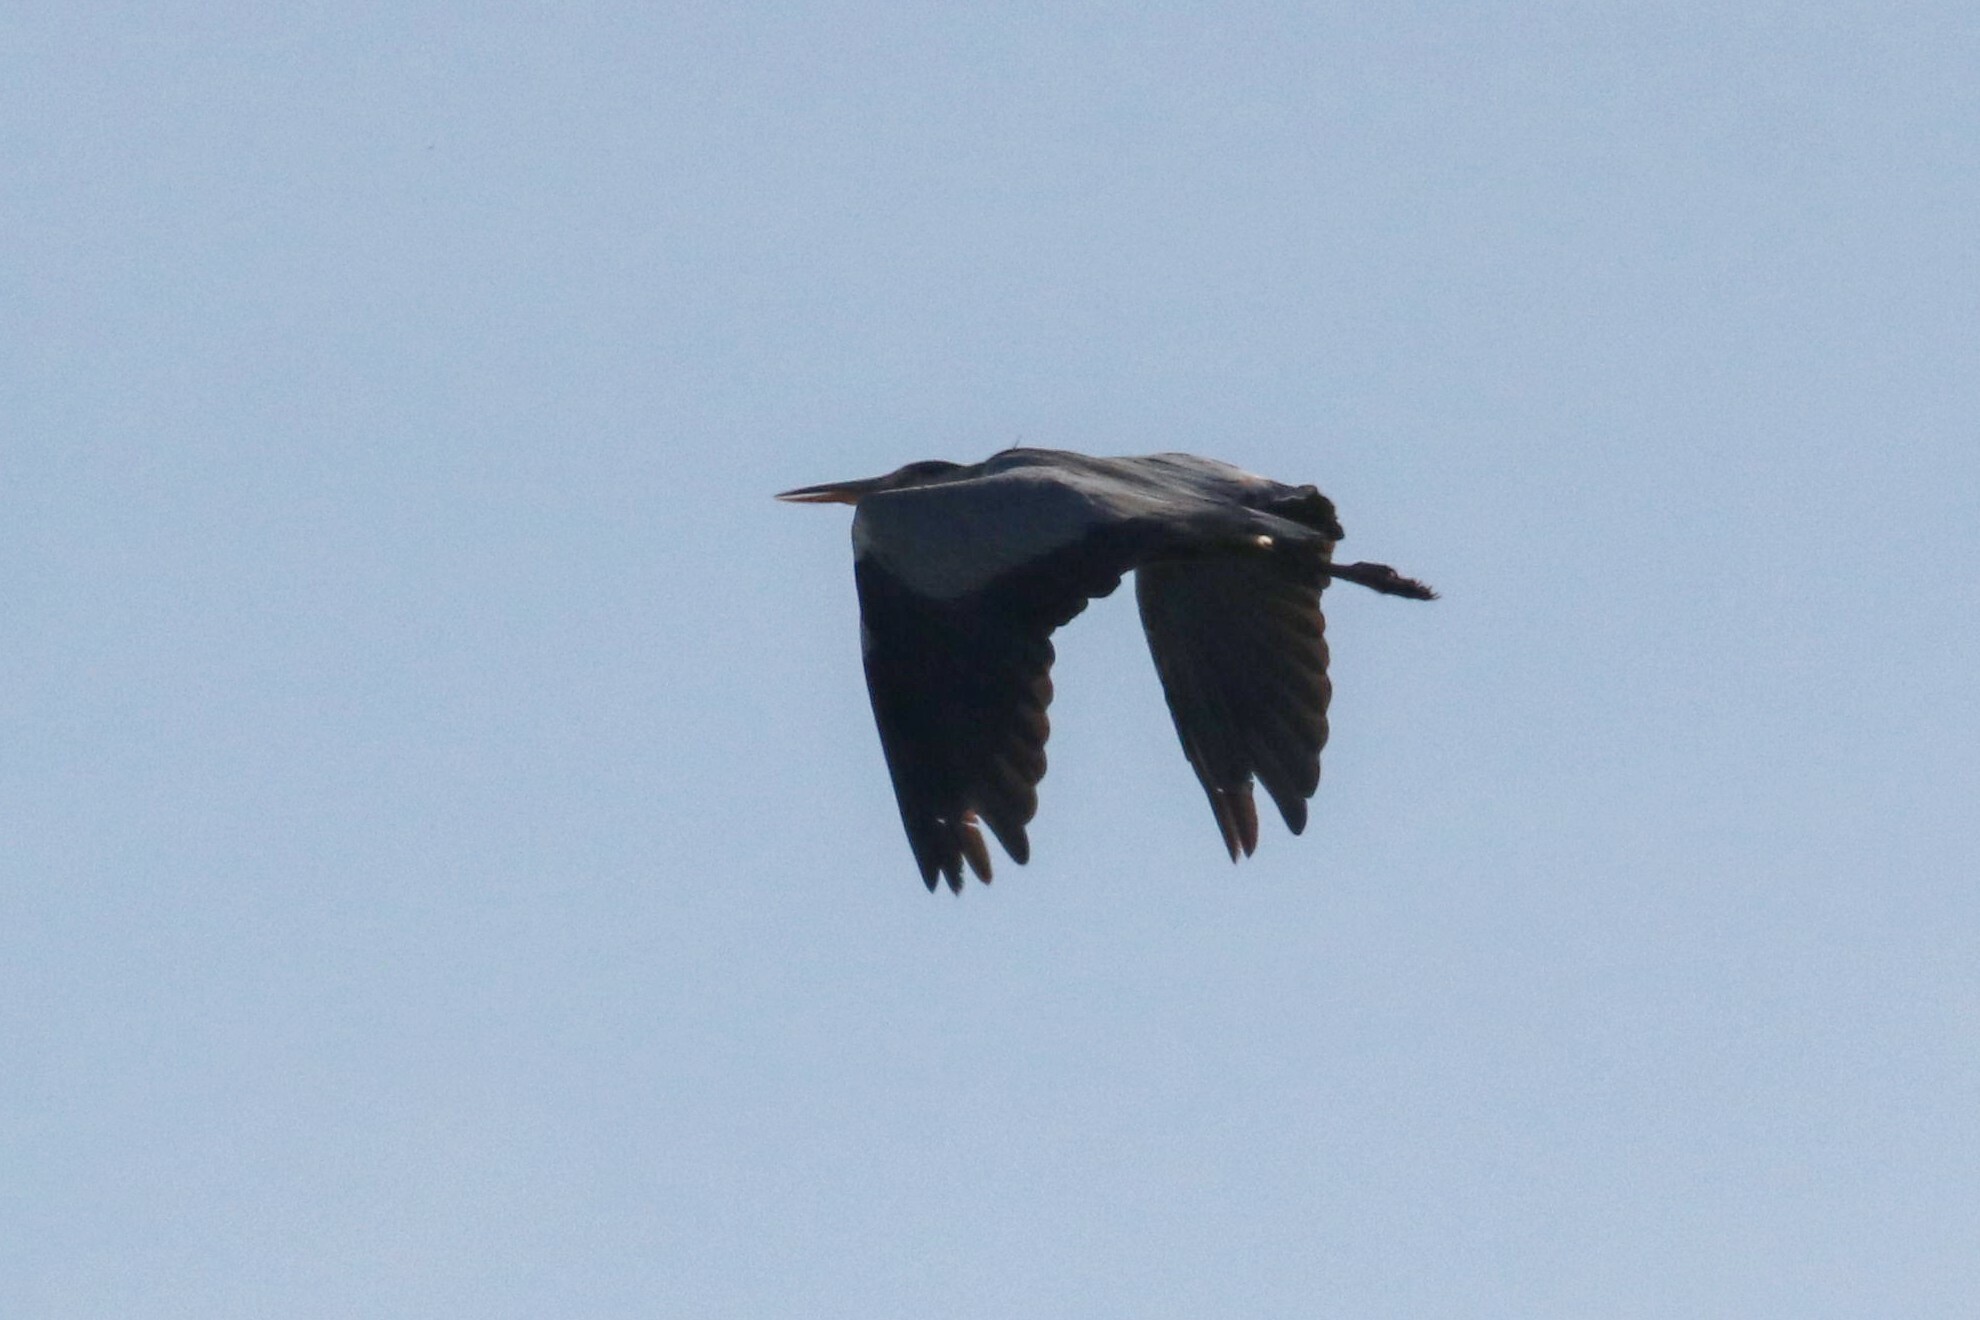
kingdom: Animalia
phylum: Chordata
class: Aves
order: Pelecaniformes
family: Ardeidae
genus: Ardea
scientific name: Ardea cinerea
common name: Grey heron
